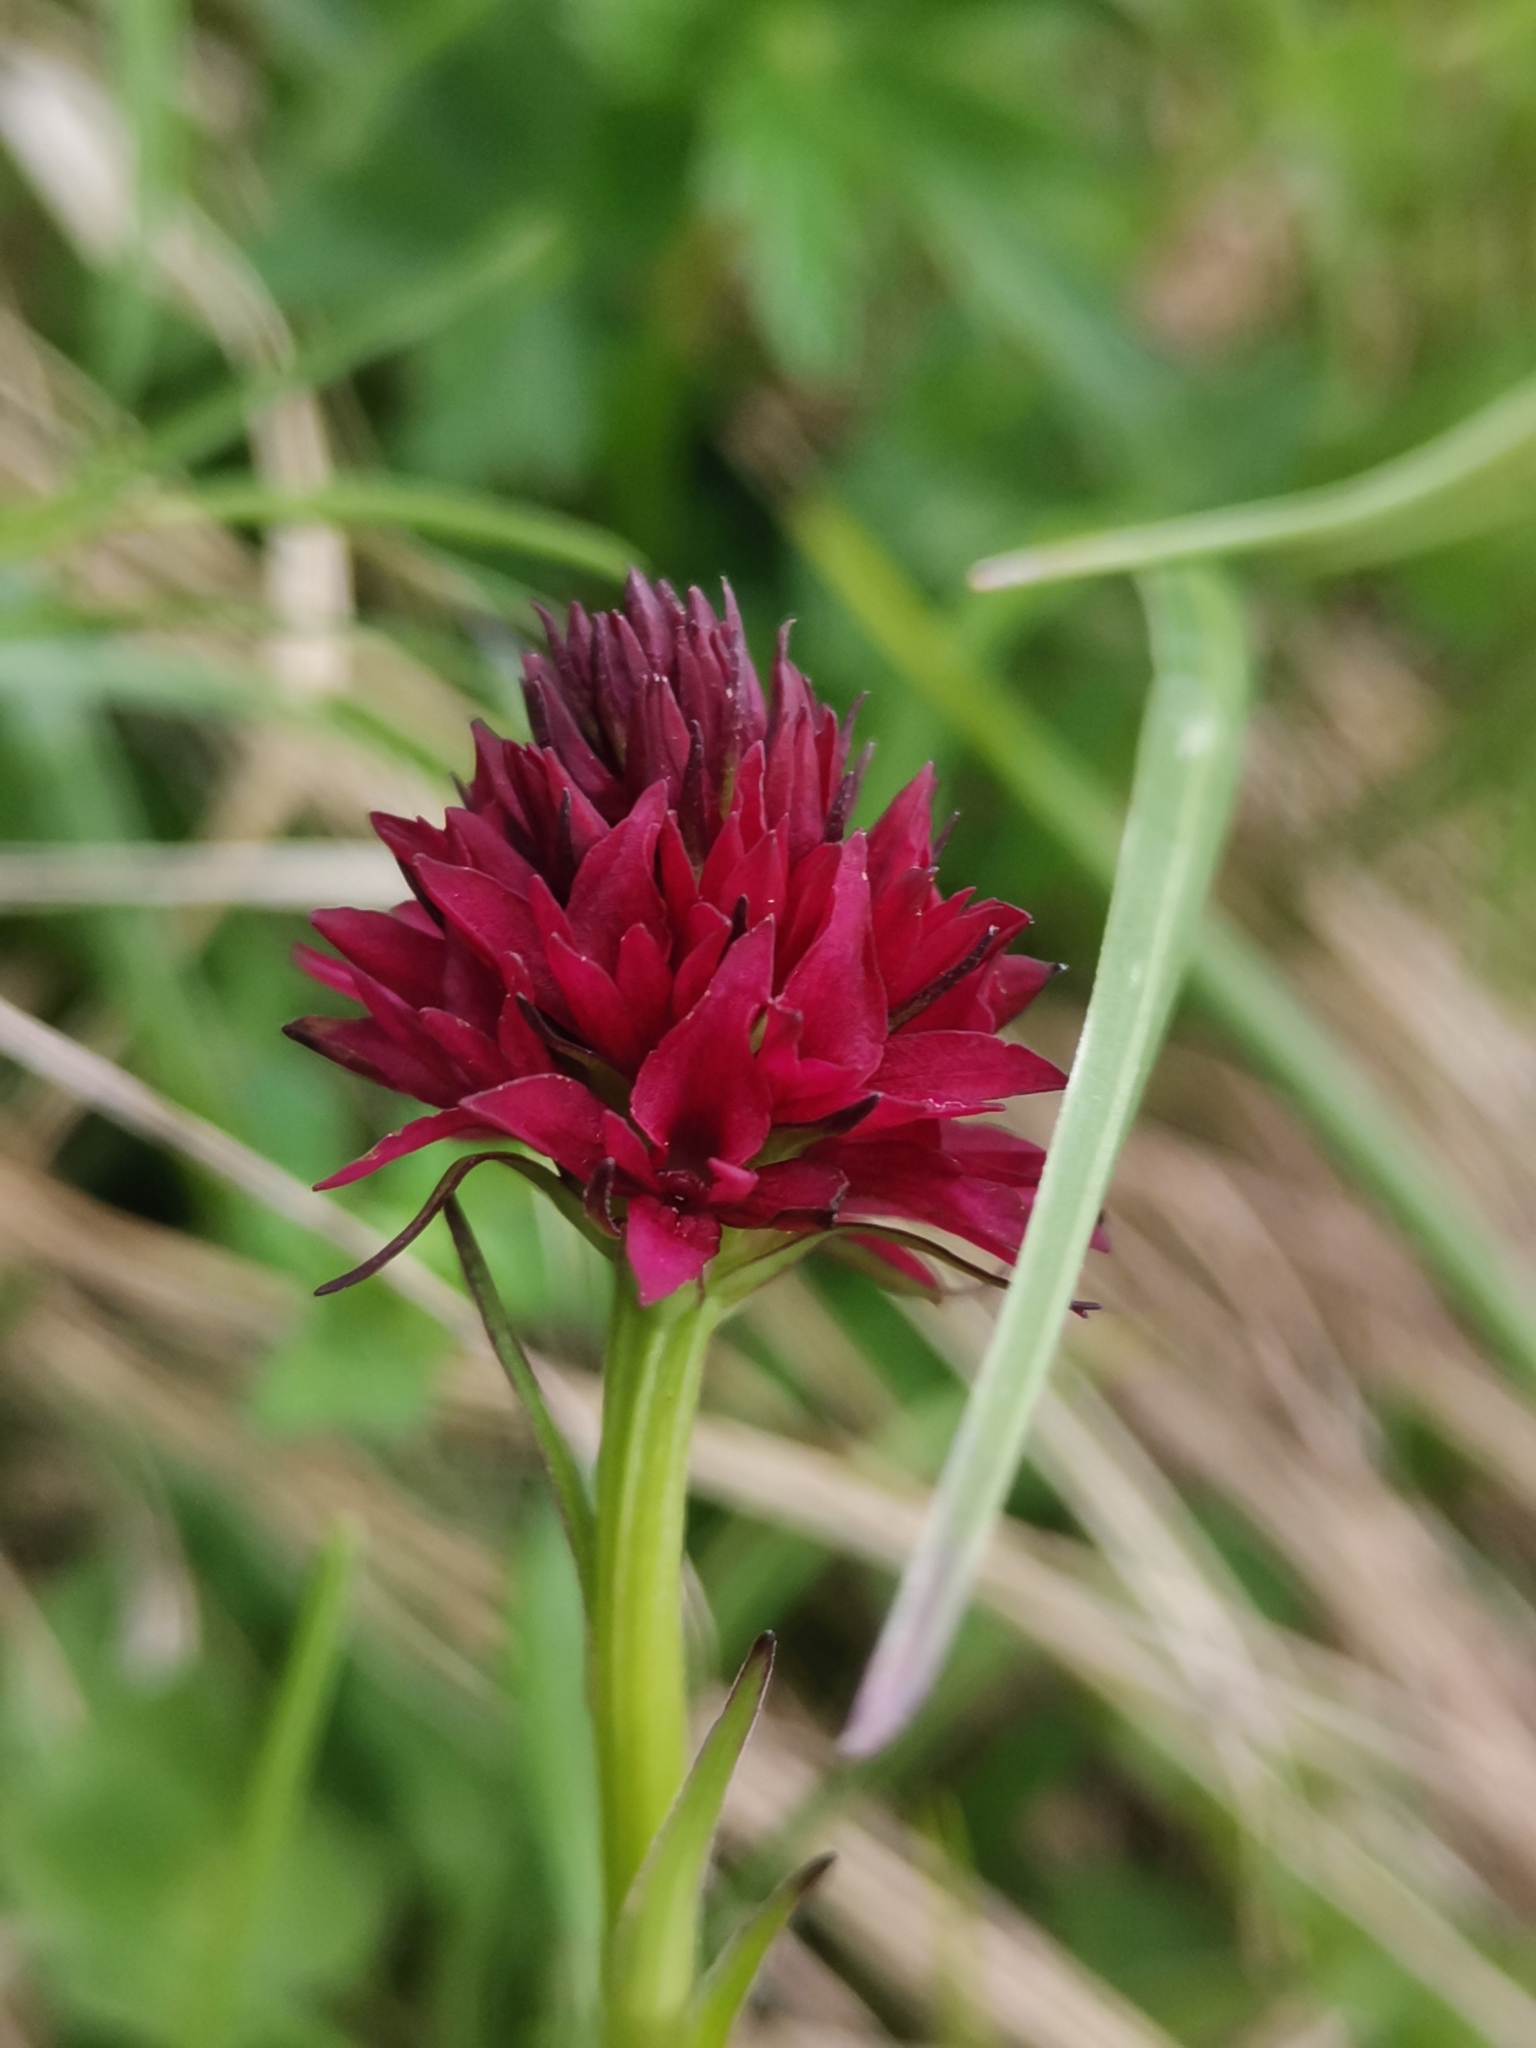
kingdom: Plantae
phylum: Tracheophyta
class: Liliopsida
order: Asparagales
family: Orchidaceae
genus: Gymnadenia
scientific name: Gymnadenia ravnikii
